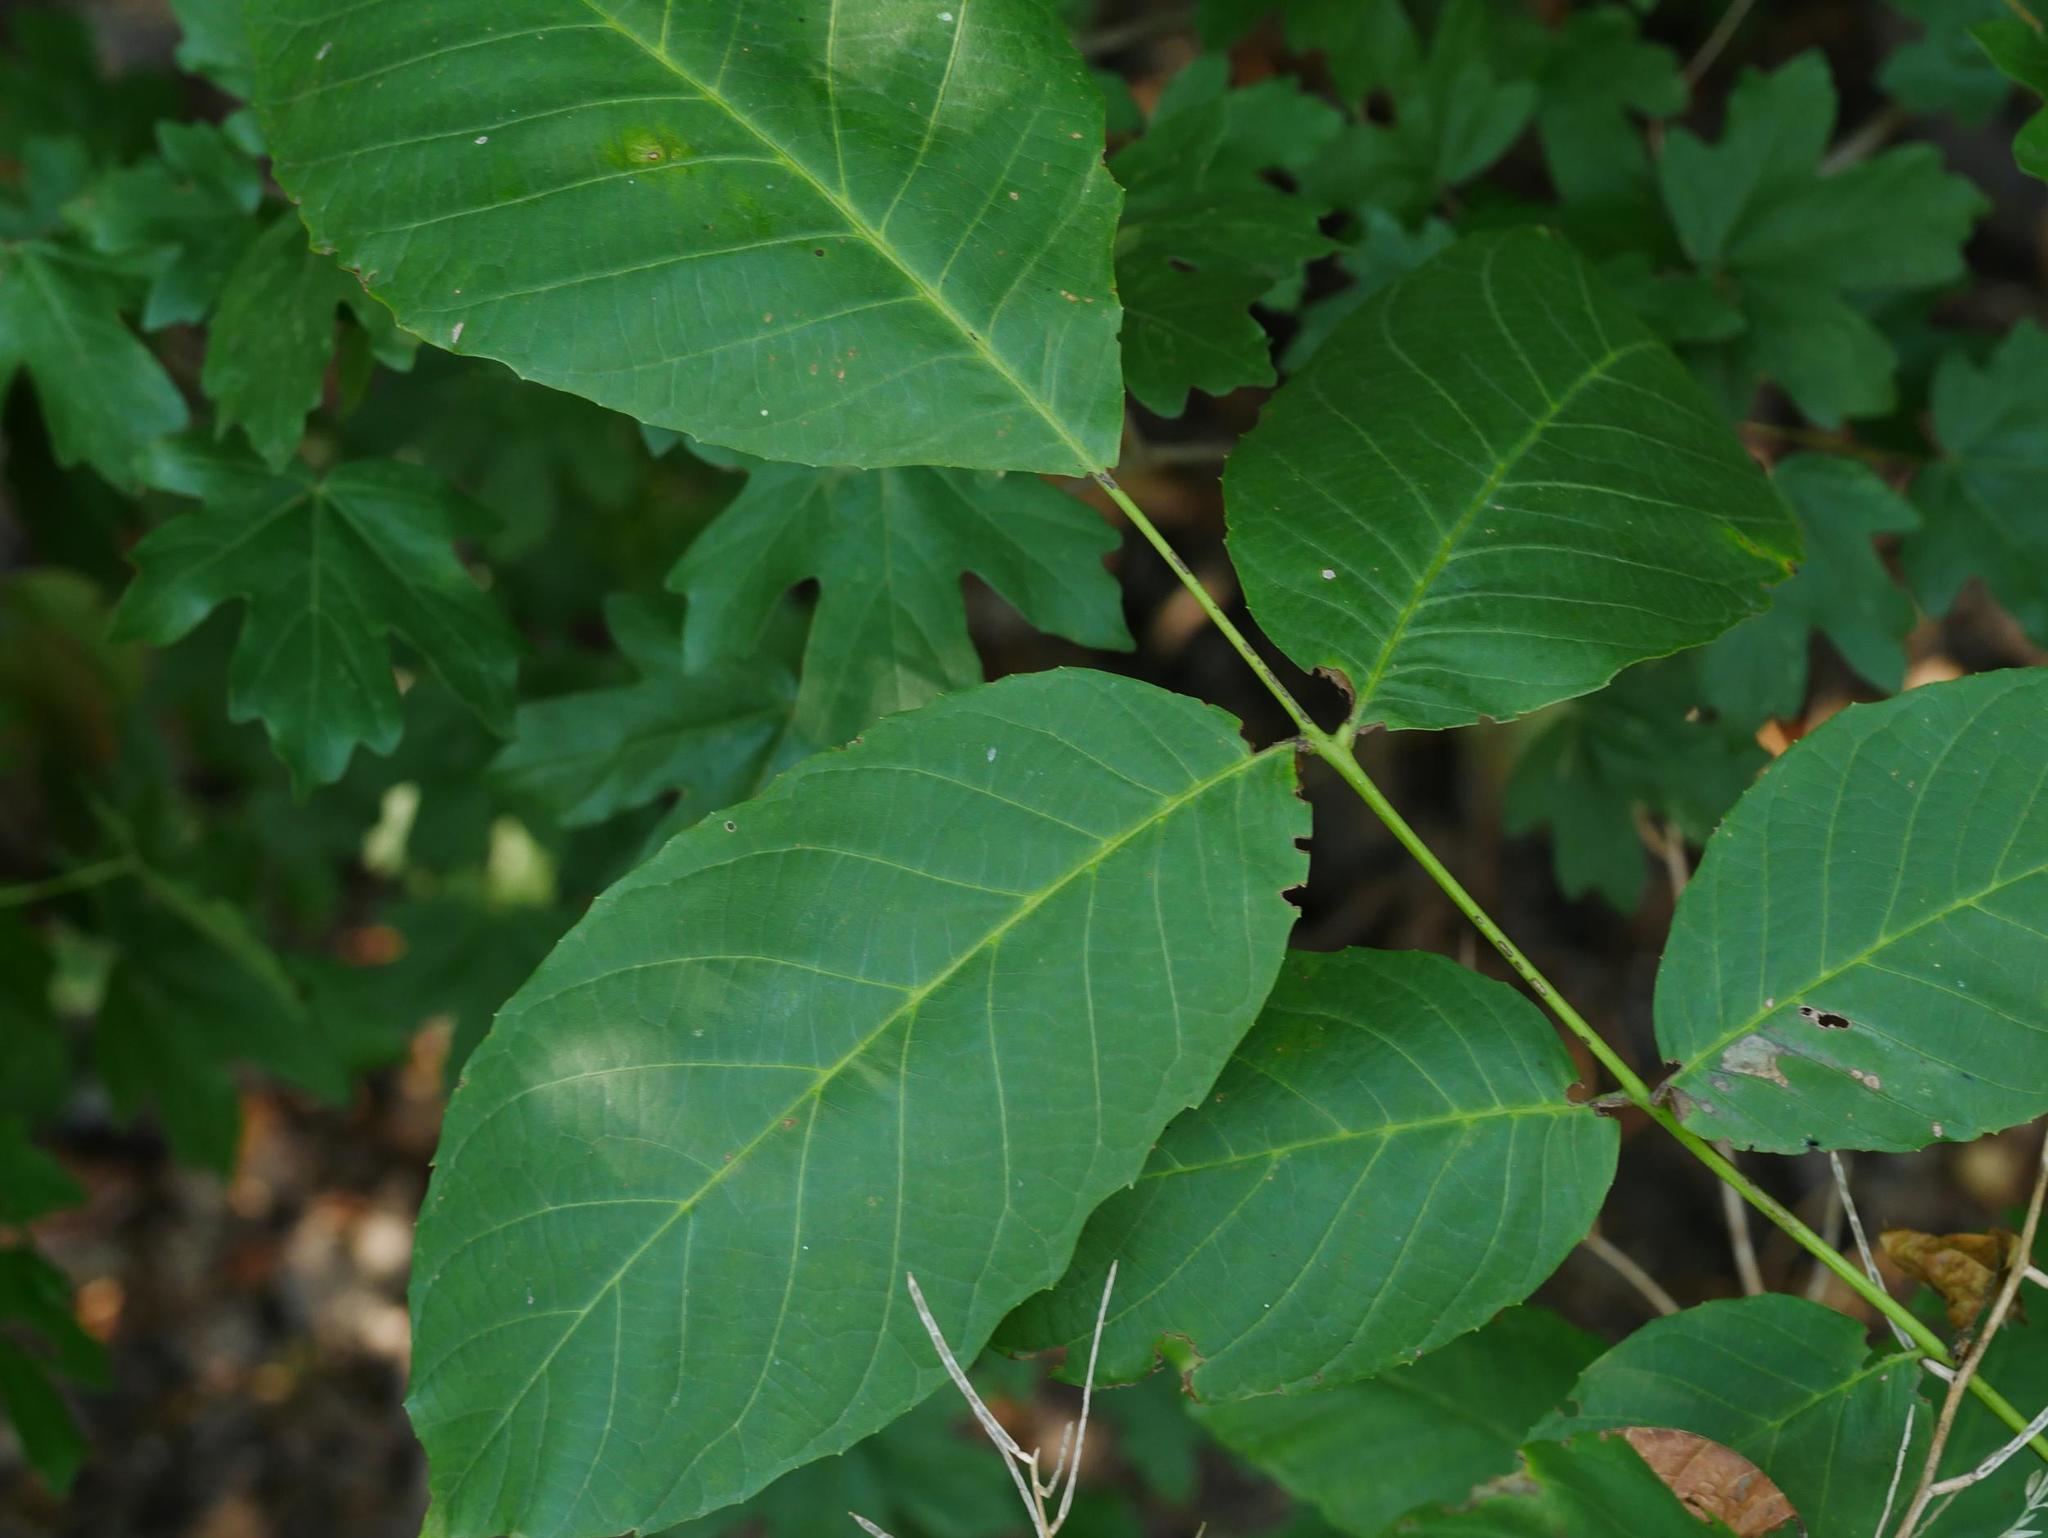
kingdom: Plantae
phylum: Tracheophyta
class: Magnoliopsida
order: Fagales
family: Juglandaceae
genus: Juglans
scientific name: Juglans regia
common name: Walnut
